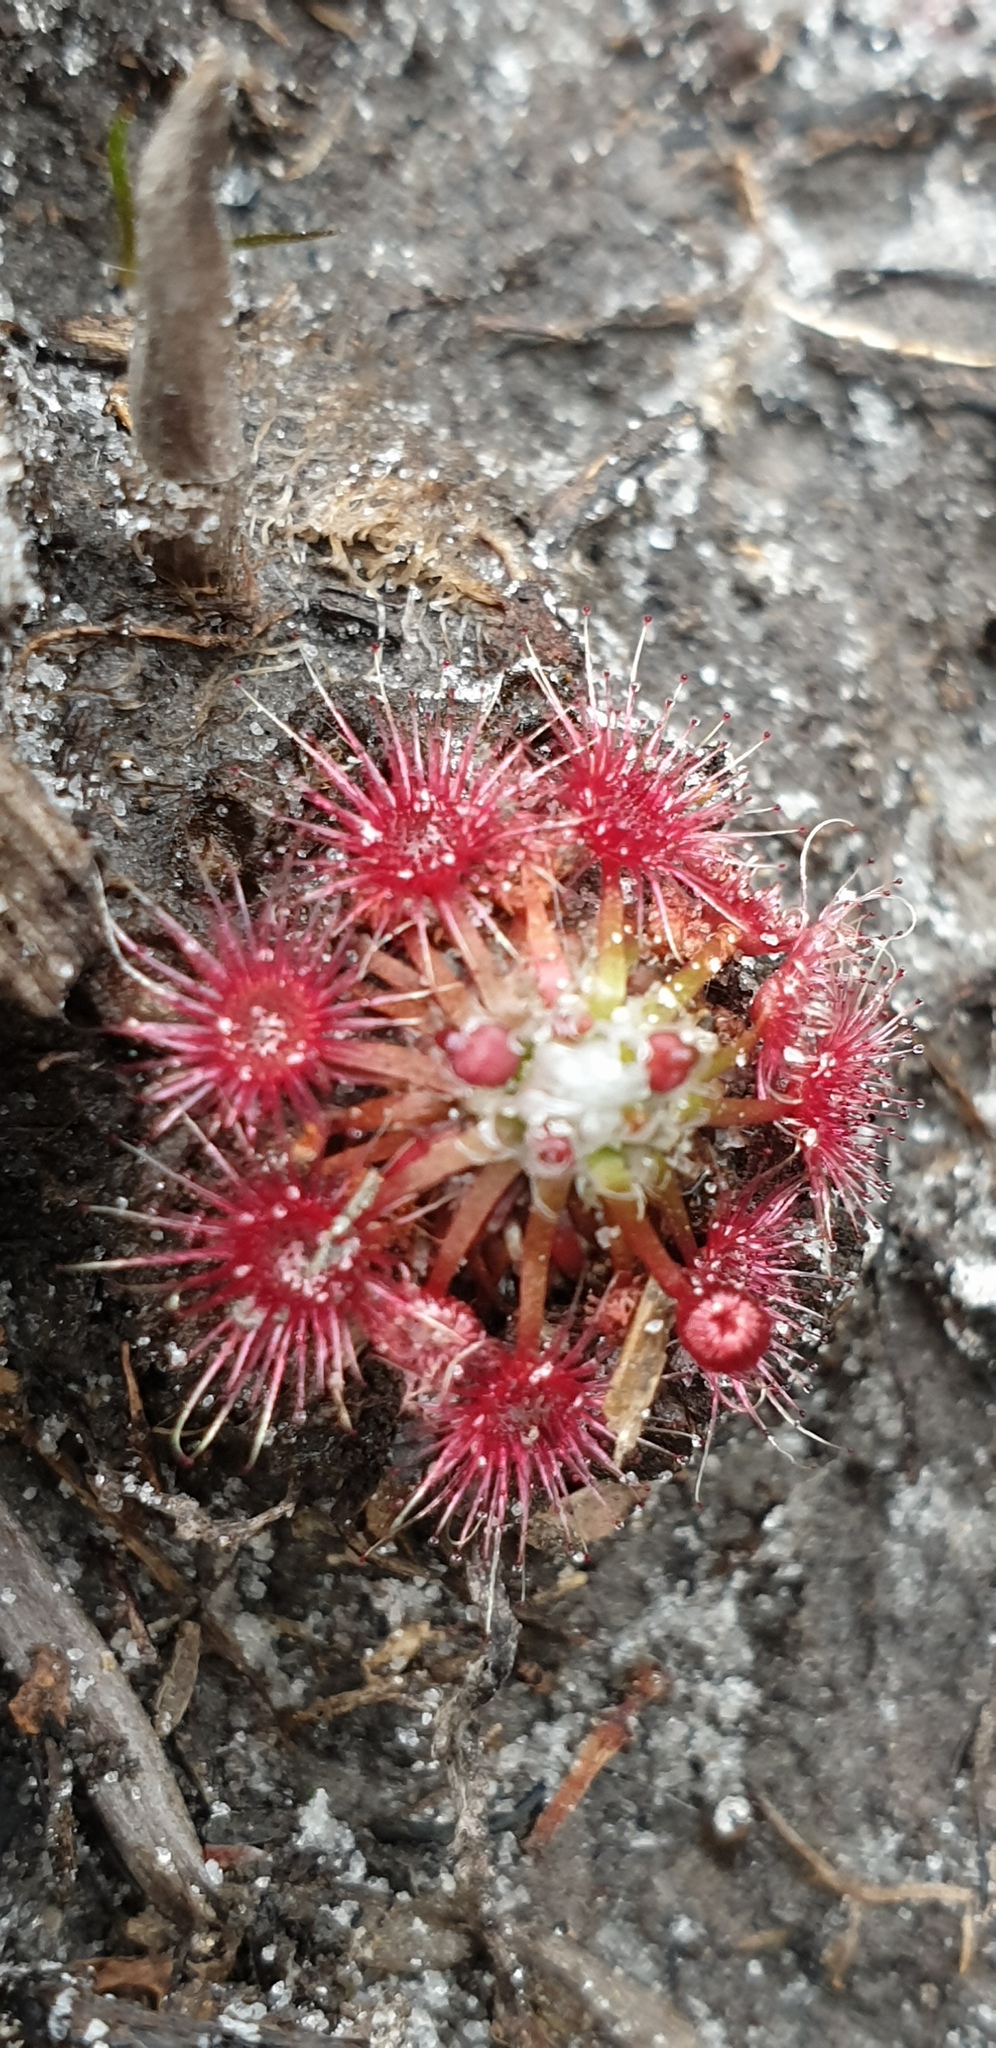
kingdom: Plantae
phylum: Tracheophyta
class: Magnoliopsida
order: Caryophyllales
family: Droseraceae
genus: Drosera
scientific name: Drosera pygmaea
